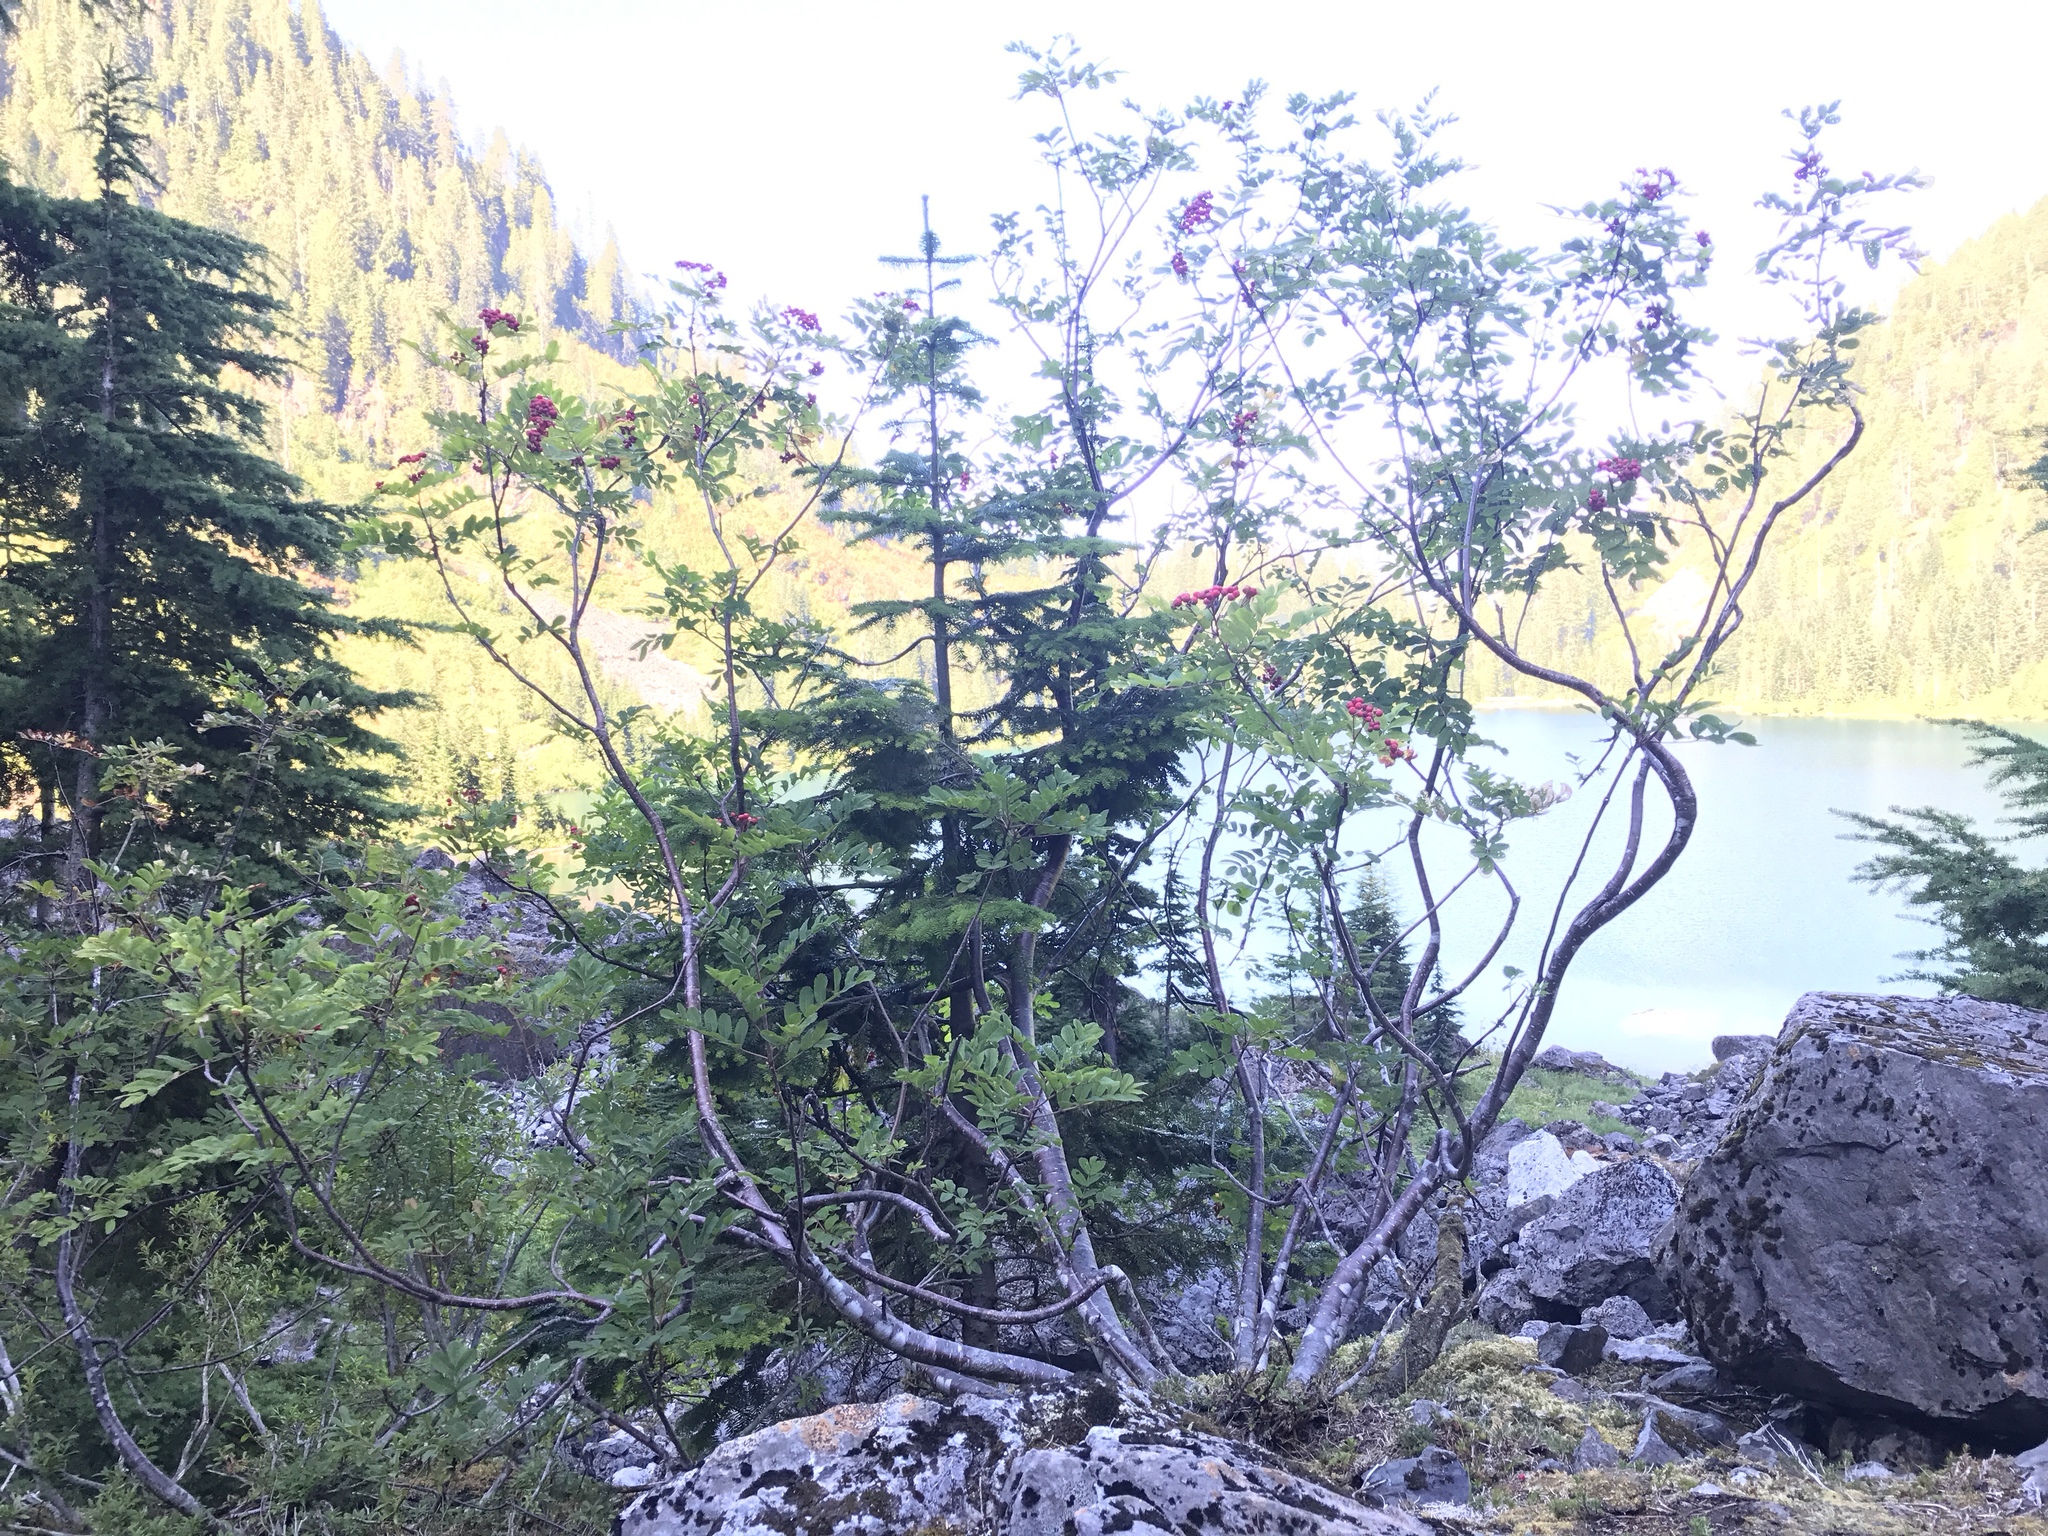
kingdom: Plantae
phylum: Tracheophyta
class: Magnoliopsida
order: Rosales
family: Rosaceae
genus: Sorbus
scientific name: Sorbus sitchensis
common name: Sitka mountain-ash
